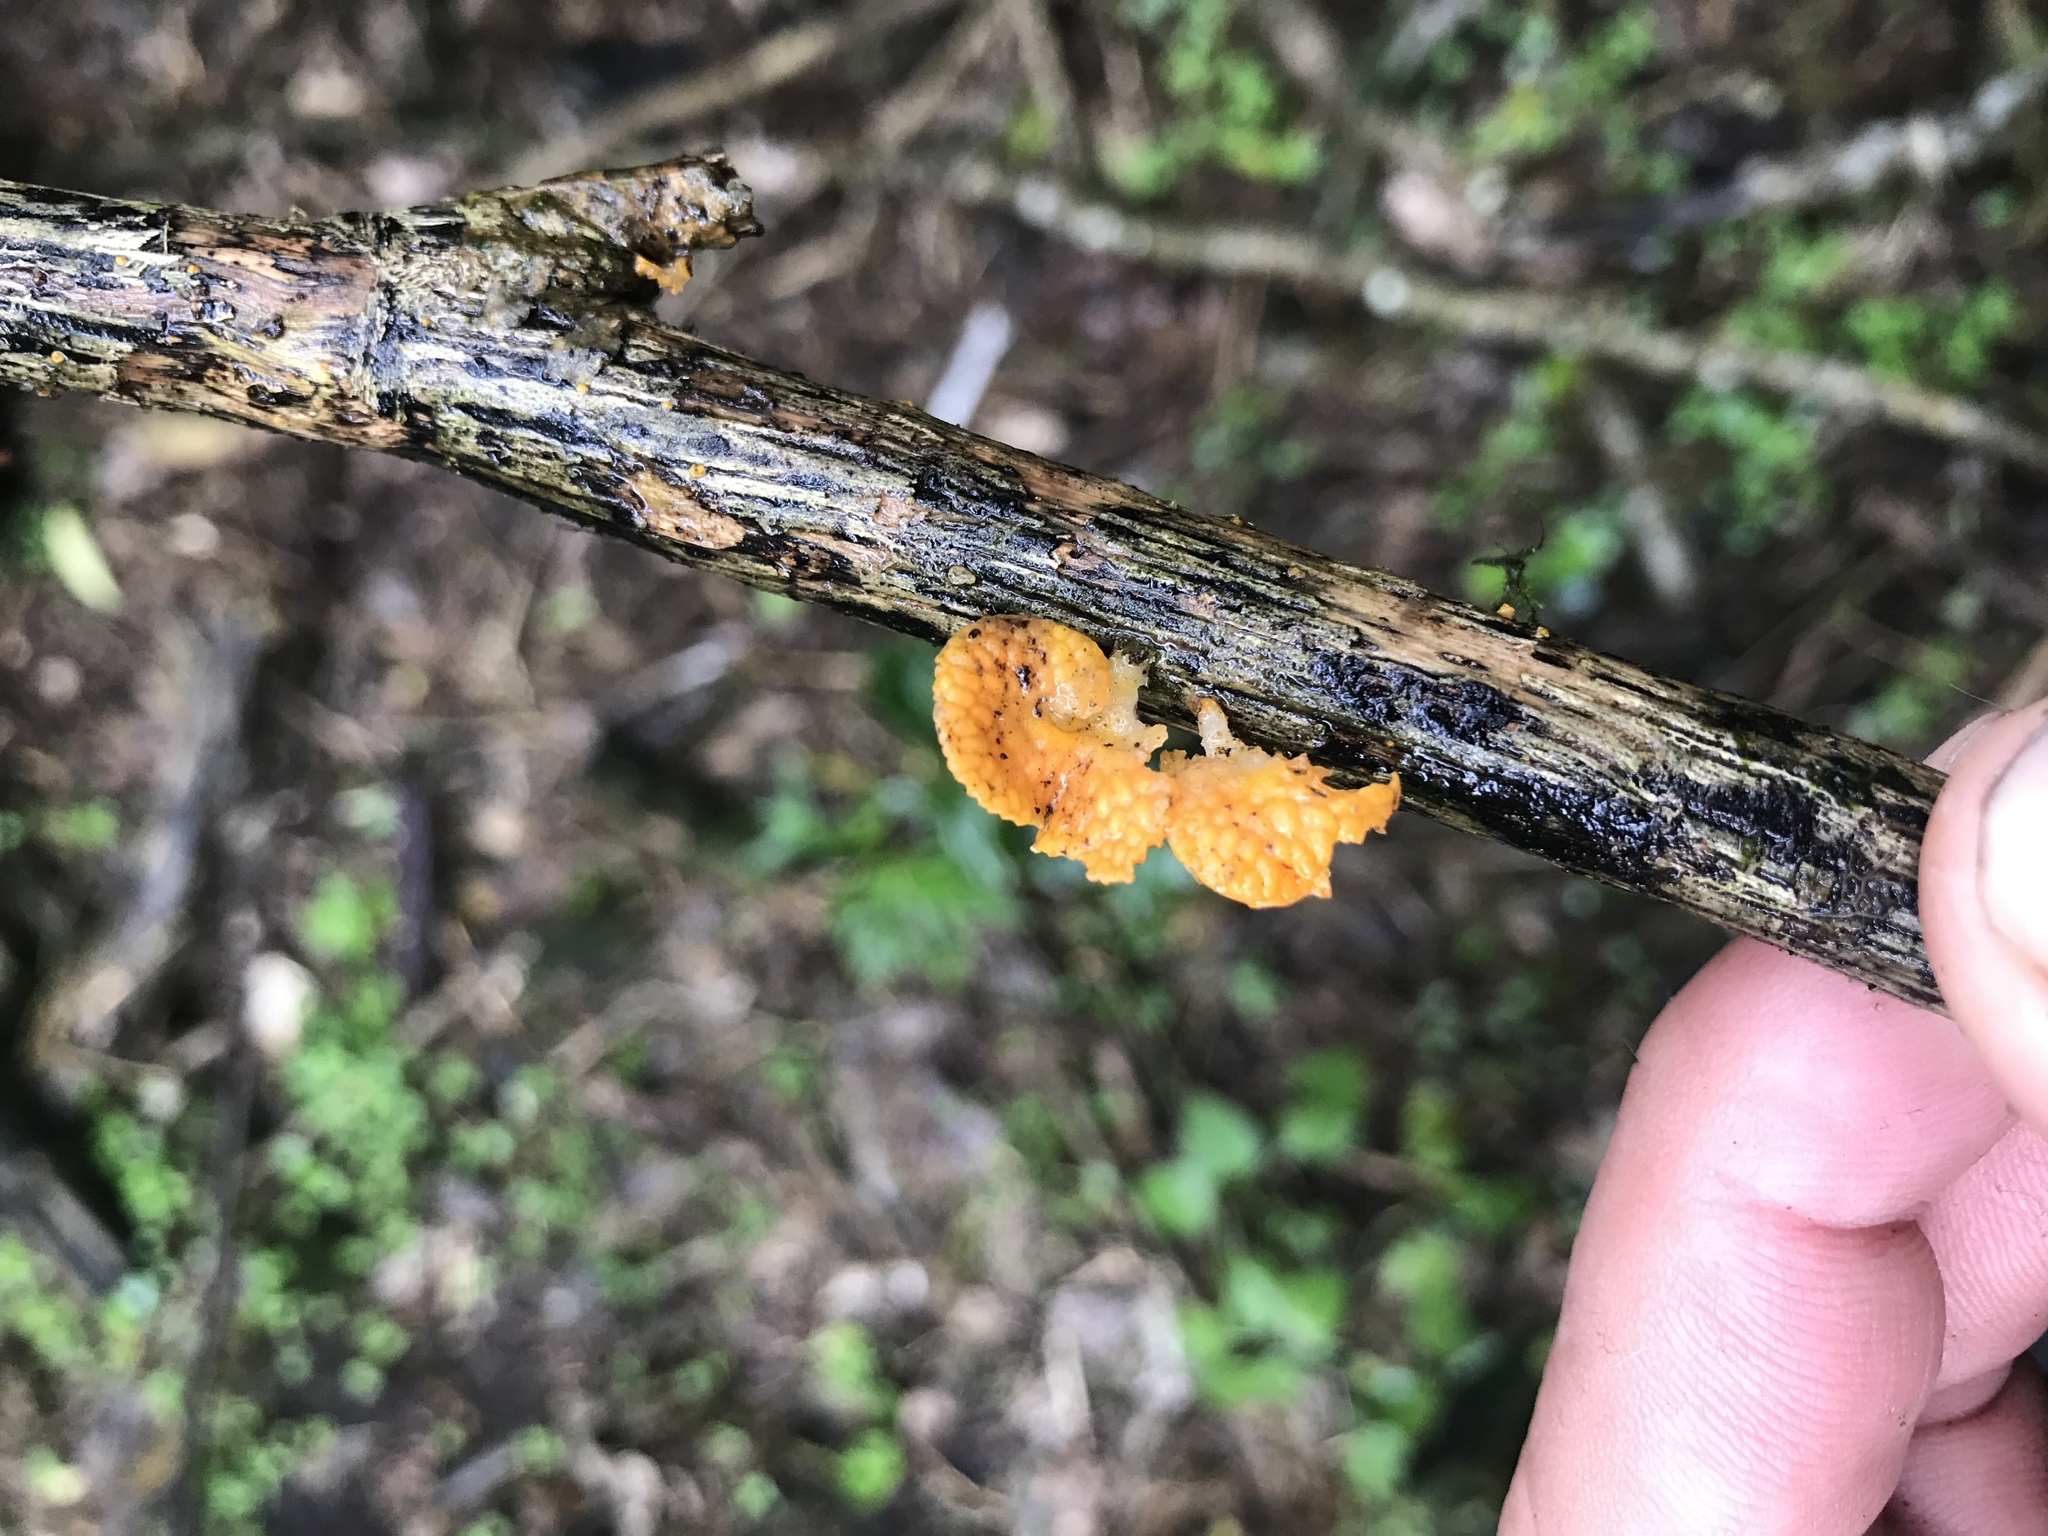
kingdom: Fungi
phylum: Basidiomycota
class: Agaricomycetes
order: Agaricales
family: Mycenaceae
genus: Favolaschia
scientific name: Favolaschia claudopus
